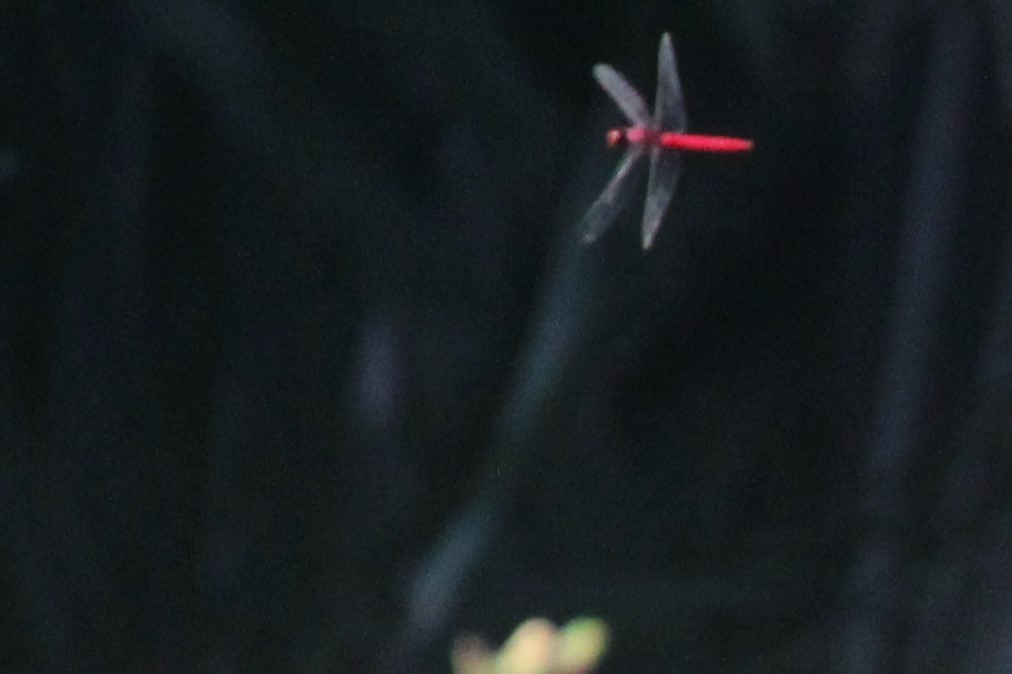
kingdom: Animalia
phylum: Arthropoda
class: Insecta
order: Odonata
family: Libellulidae
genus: Orthemis
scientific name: Orthemis schmidti
